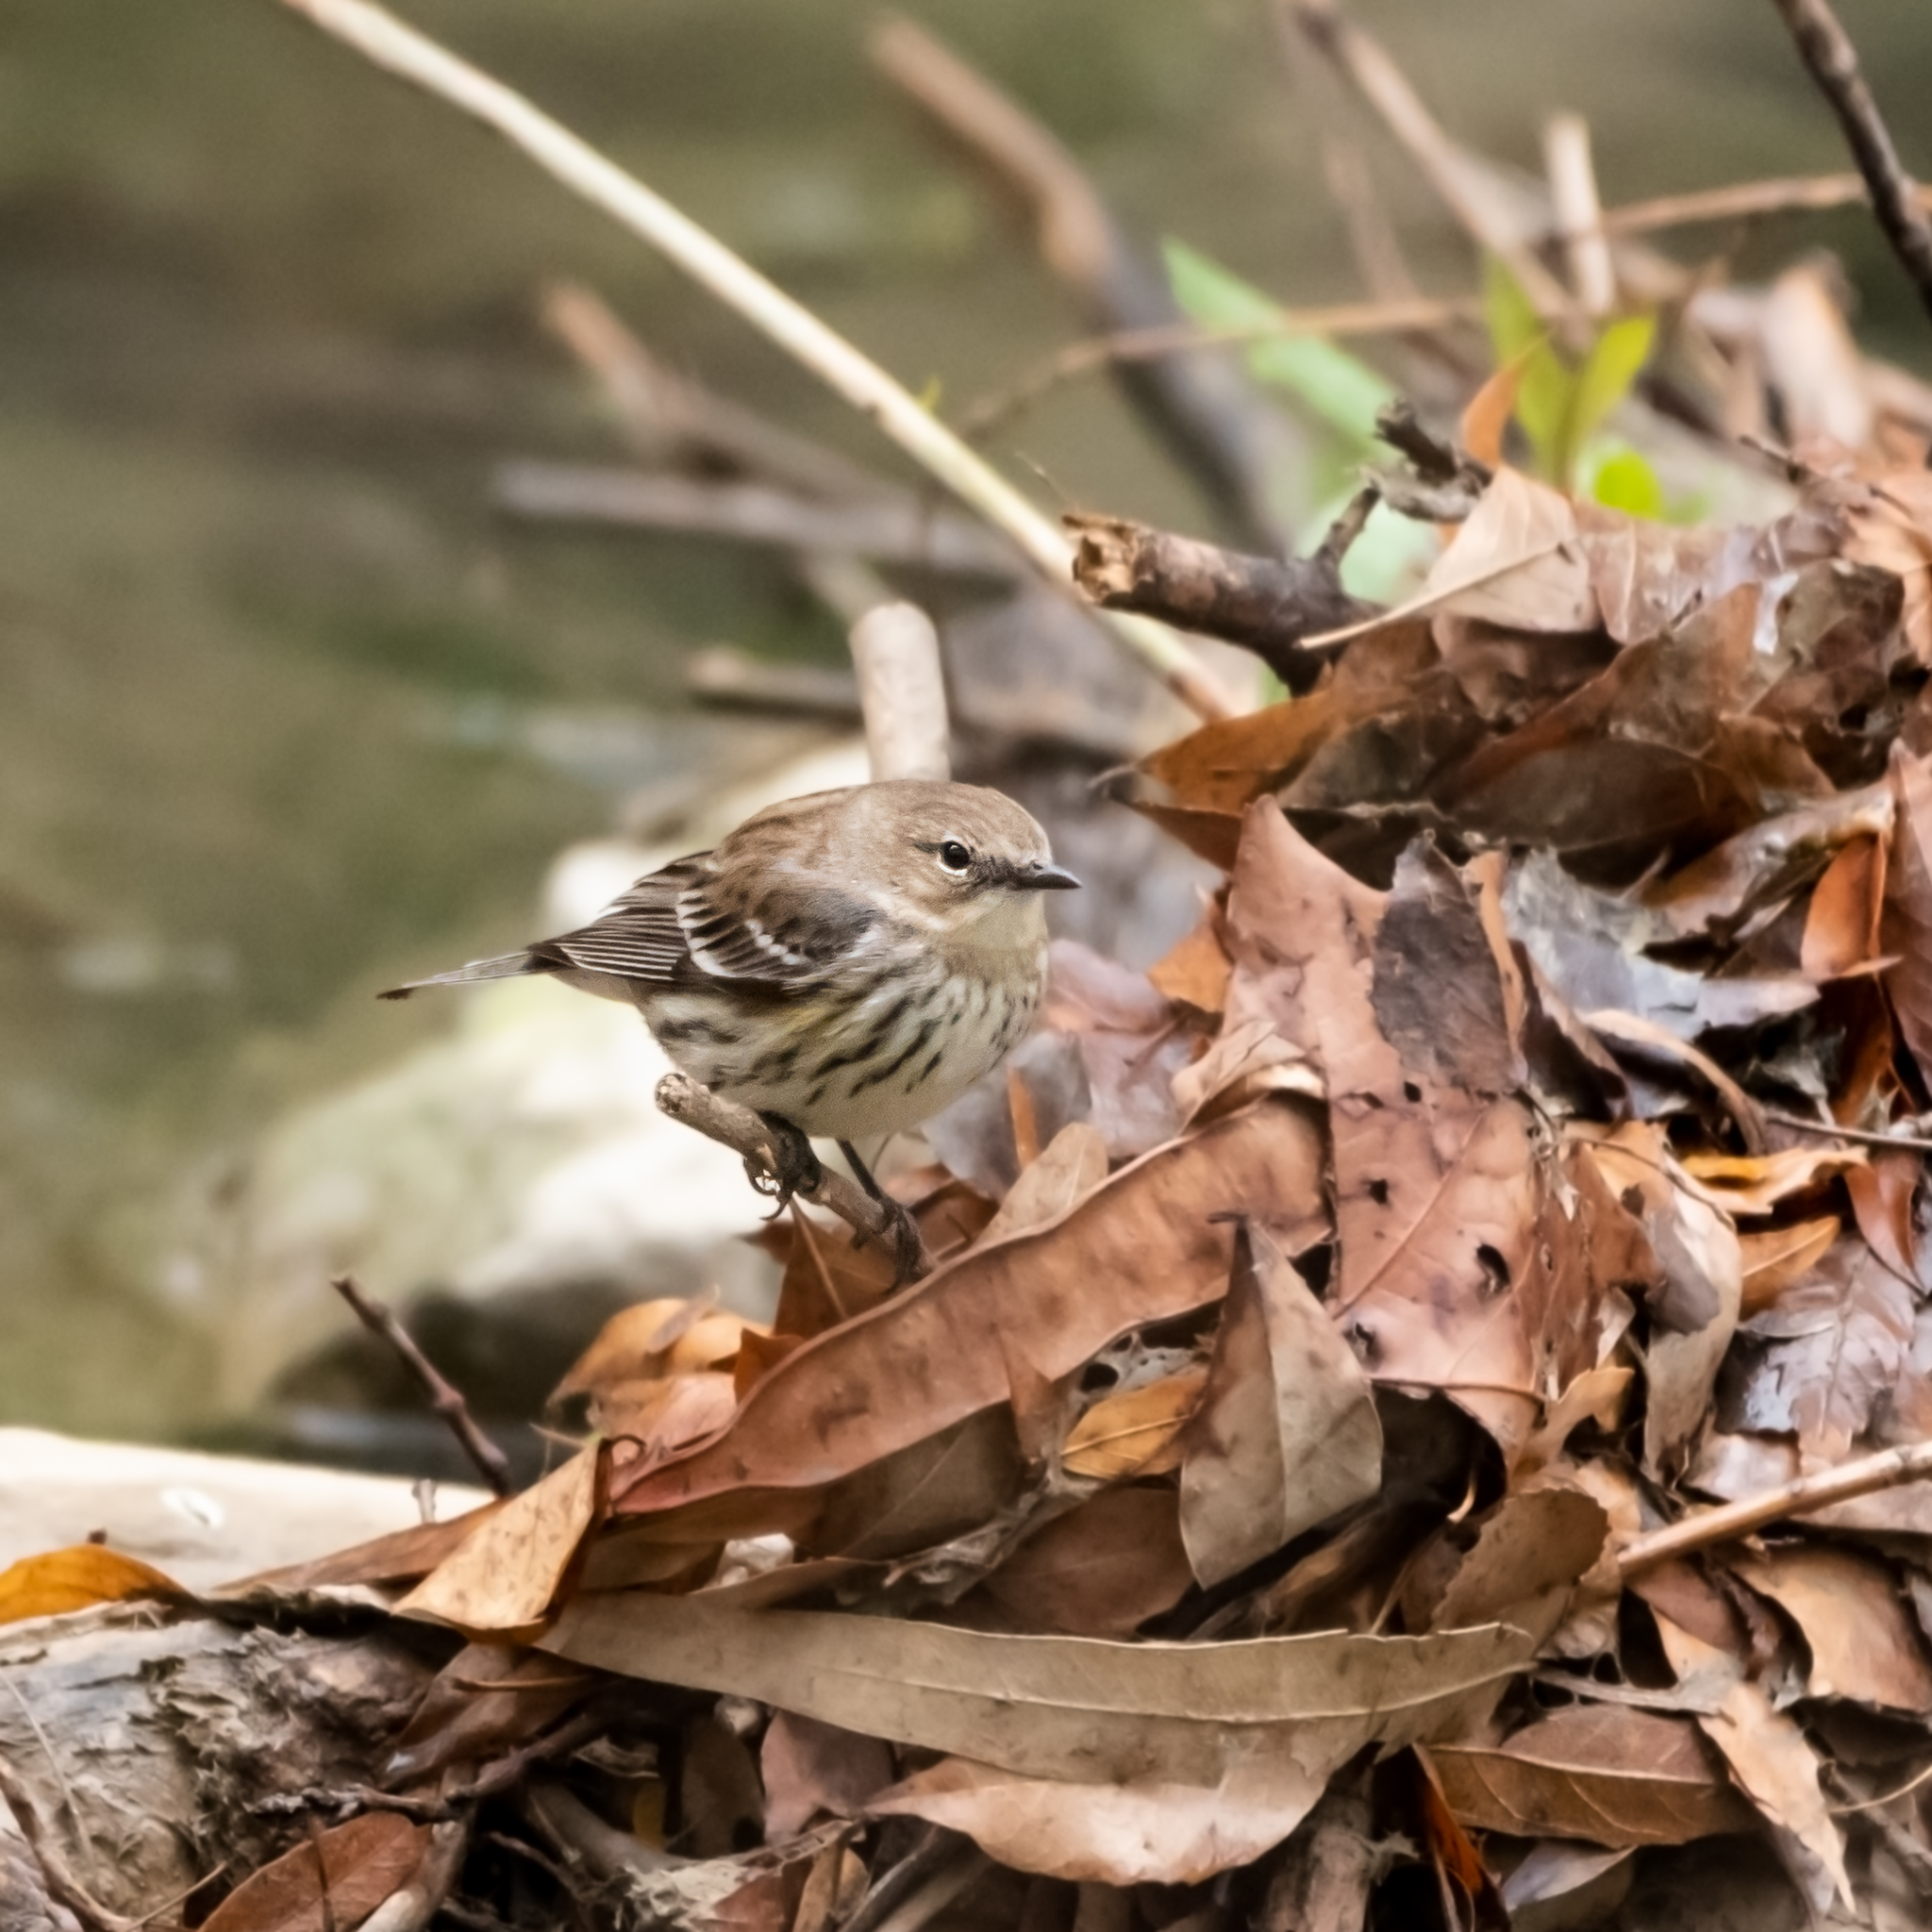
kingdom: Animalia
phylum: Chordata
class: Aves
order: Passeriformes
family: Parulidae
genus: Setophaga
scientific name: Setophaga coronata
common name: Myrtle warbler
